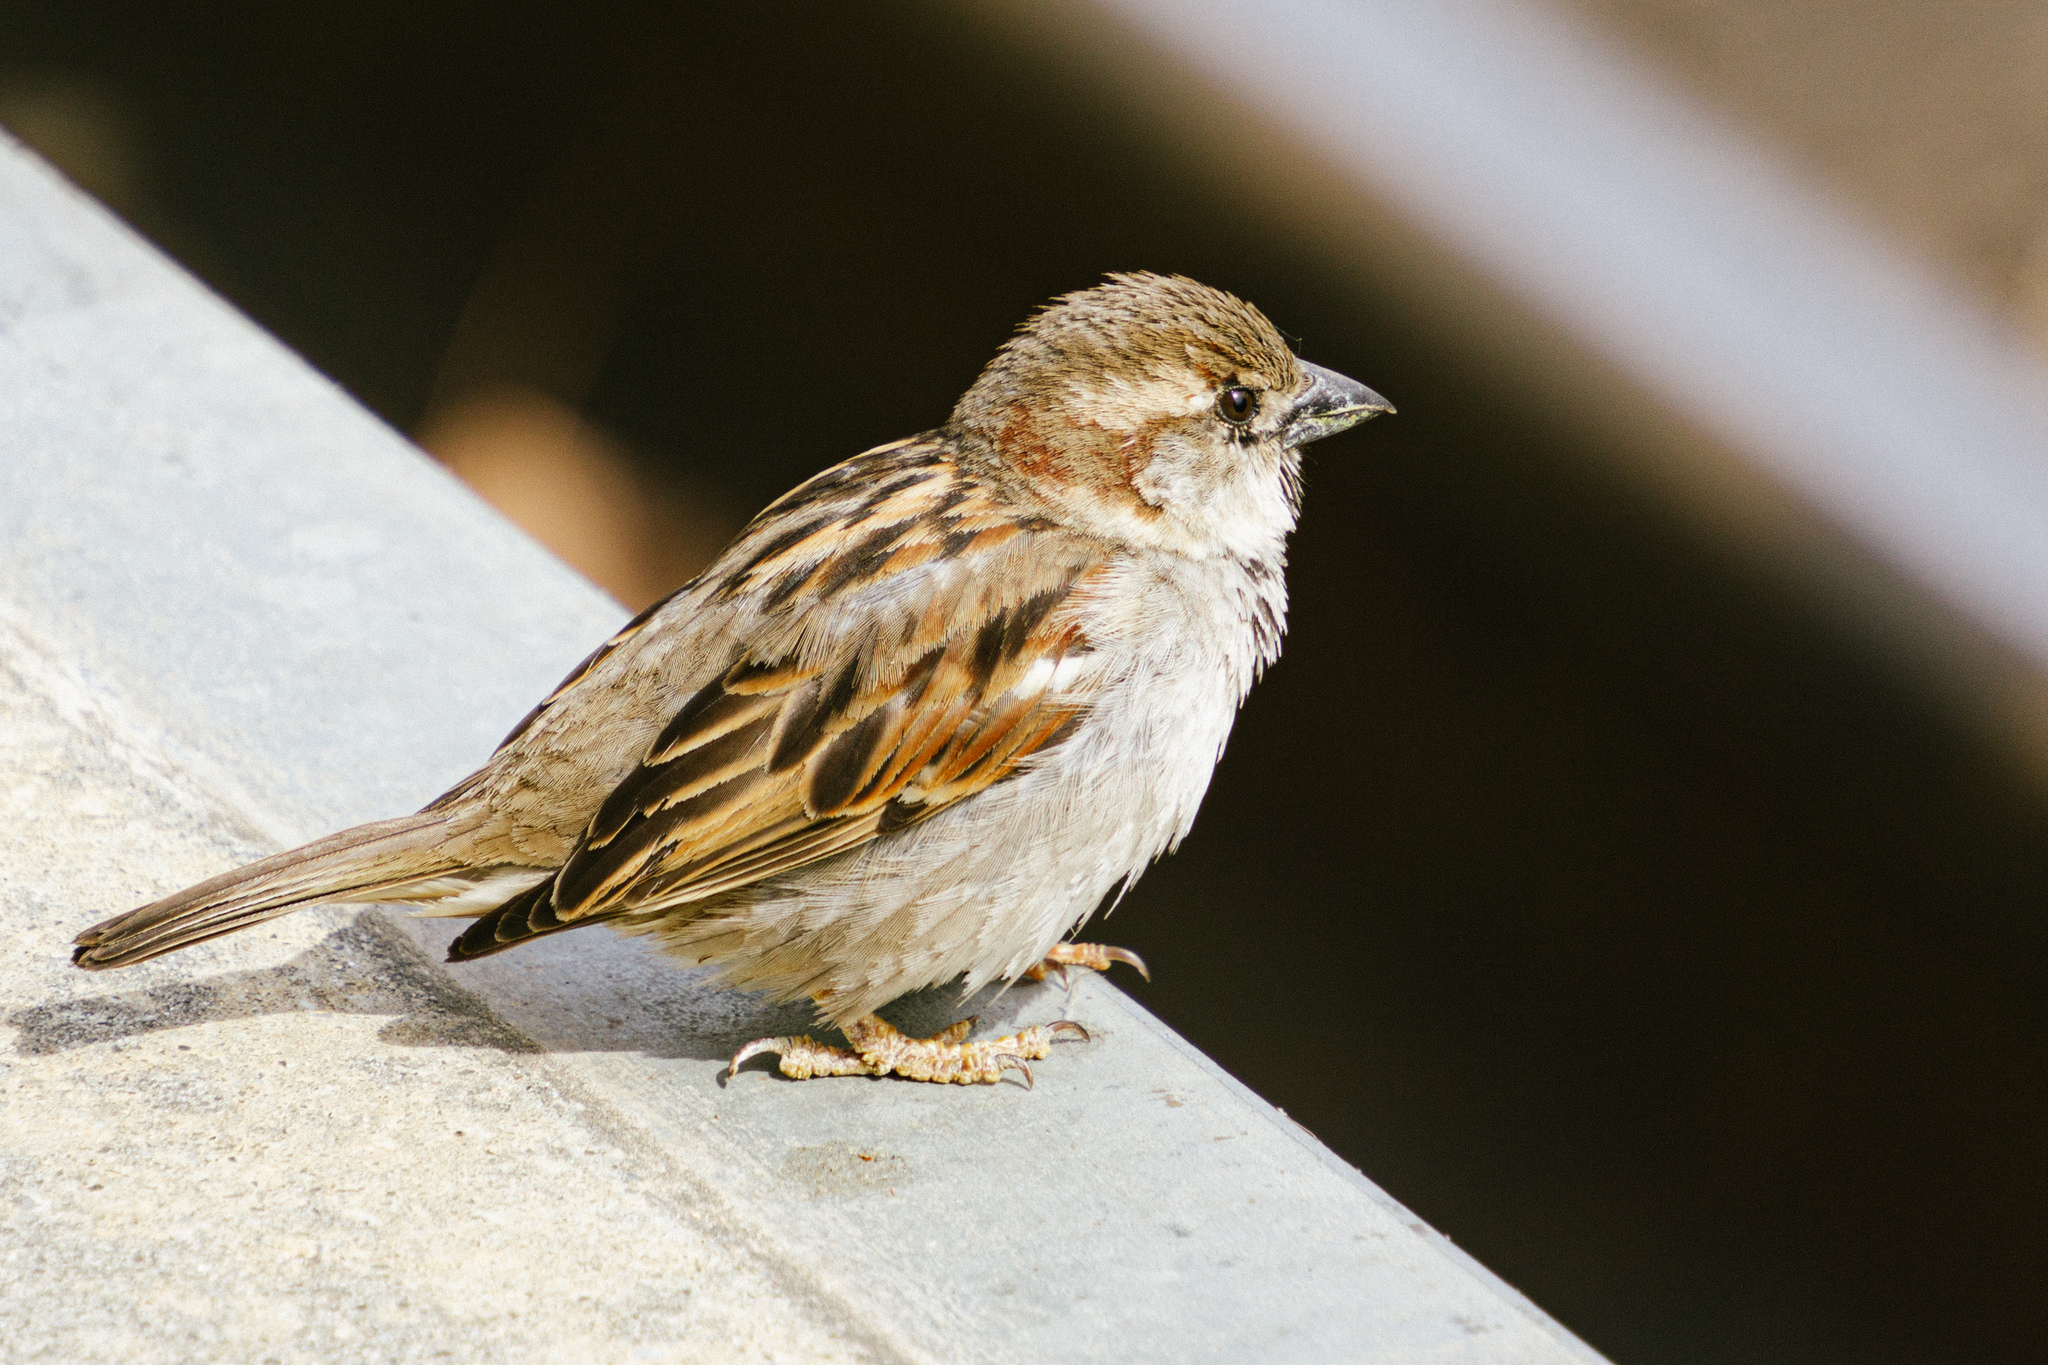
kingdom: Animalia
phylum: Chordata
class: Aves
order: Passeriformes
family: Passeridae
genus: Passer
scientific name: Passer domesticus
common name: House sparrow
